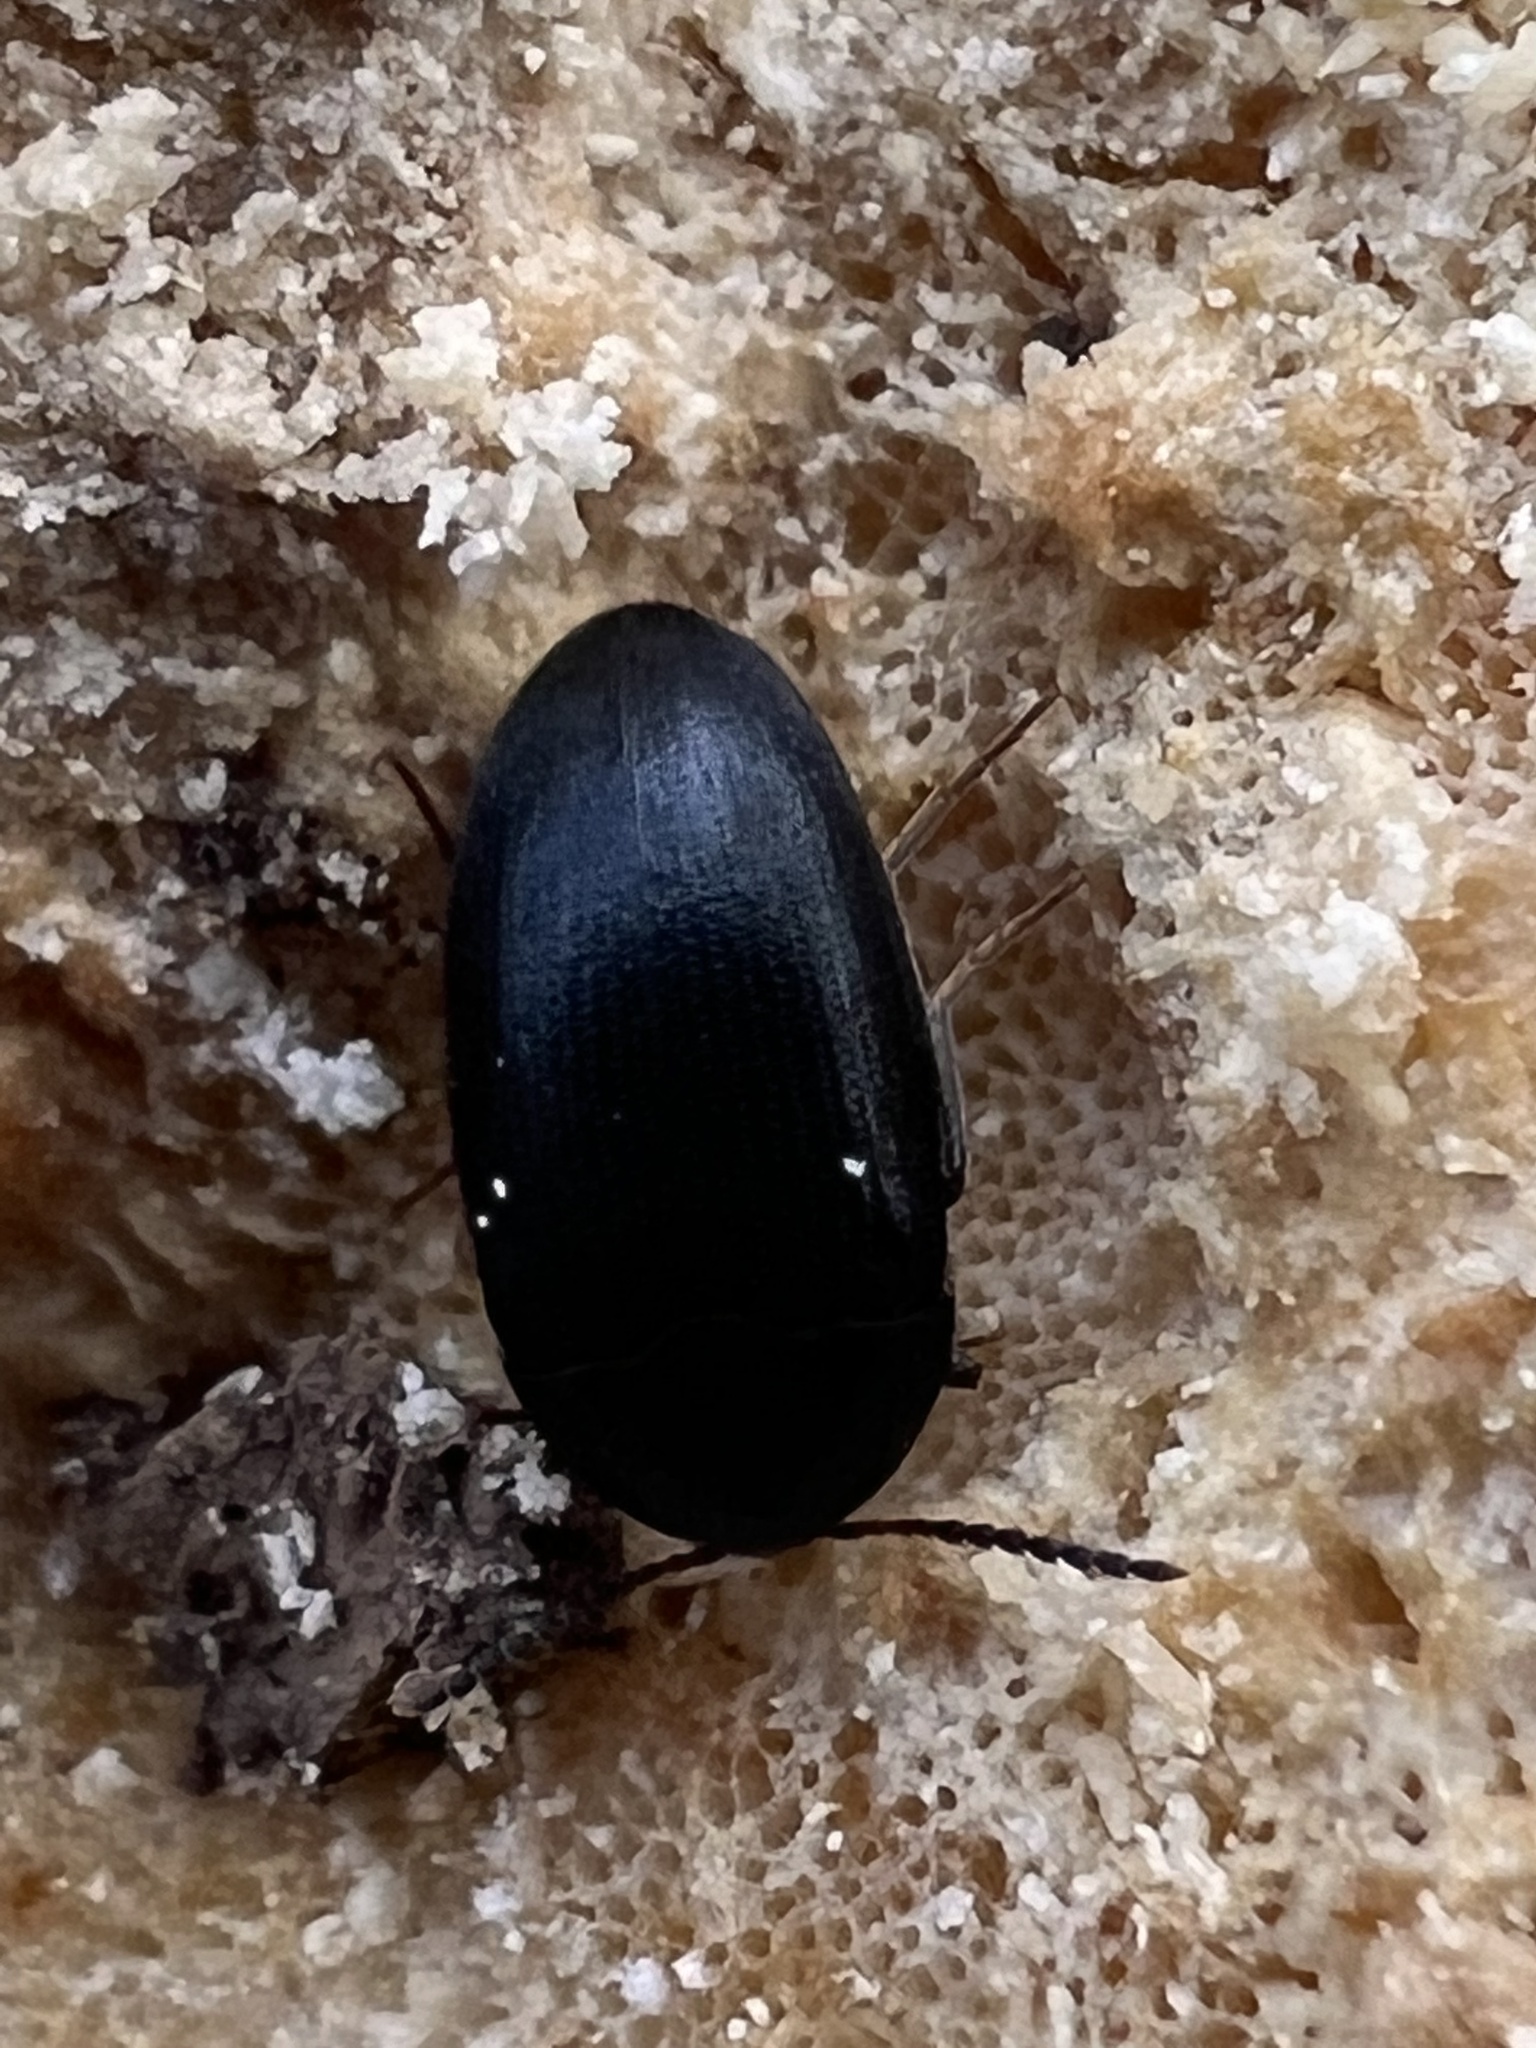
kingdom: Animalia
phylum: Arthropoda
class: Insecta
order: Coleoptera
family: Tetratomidae
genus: Synstrophus
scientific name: Synstrophus repandus
